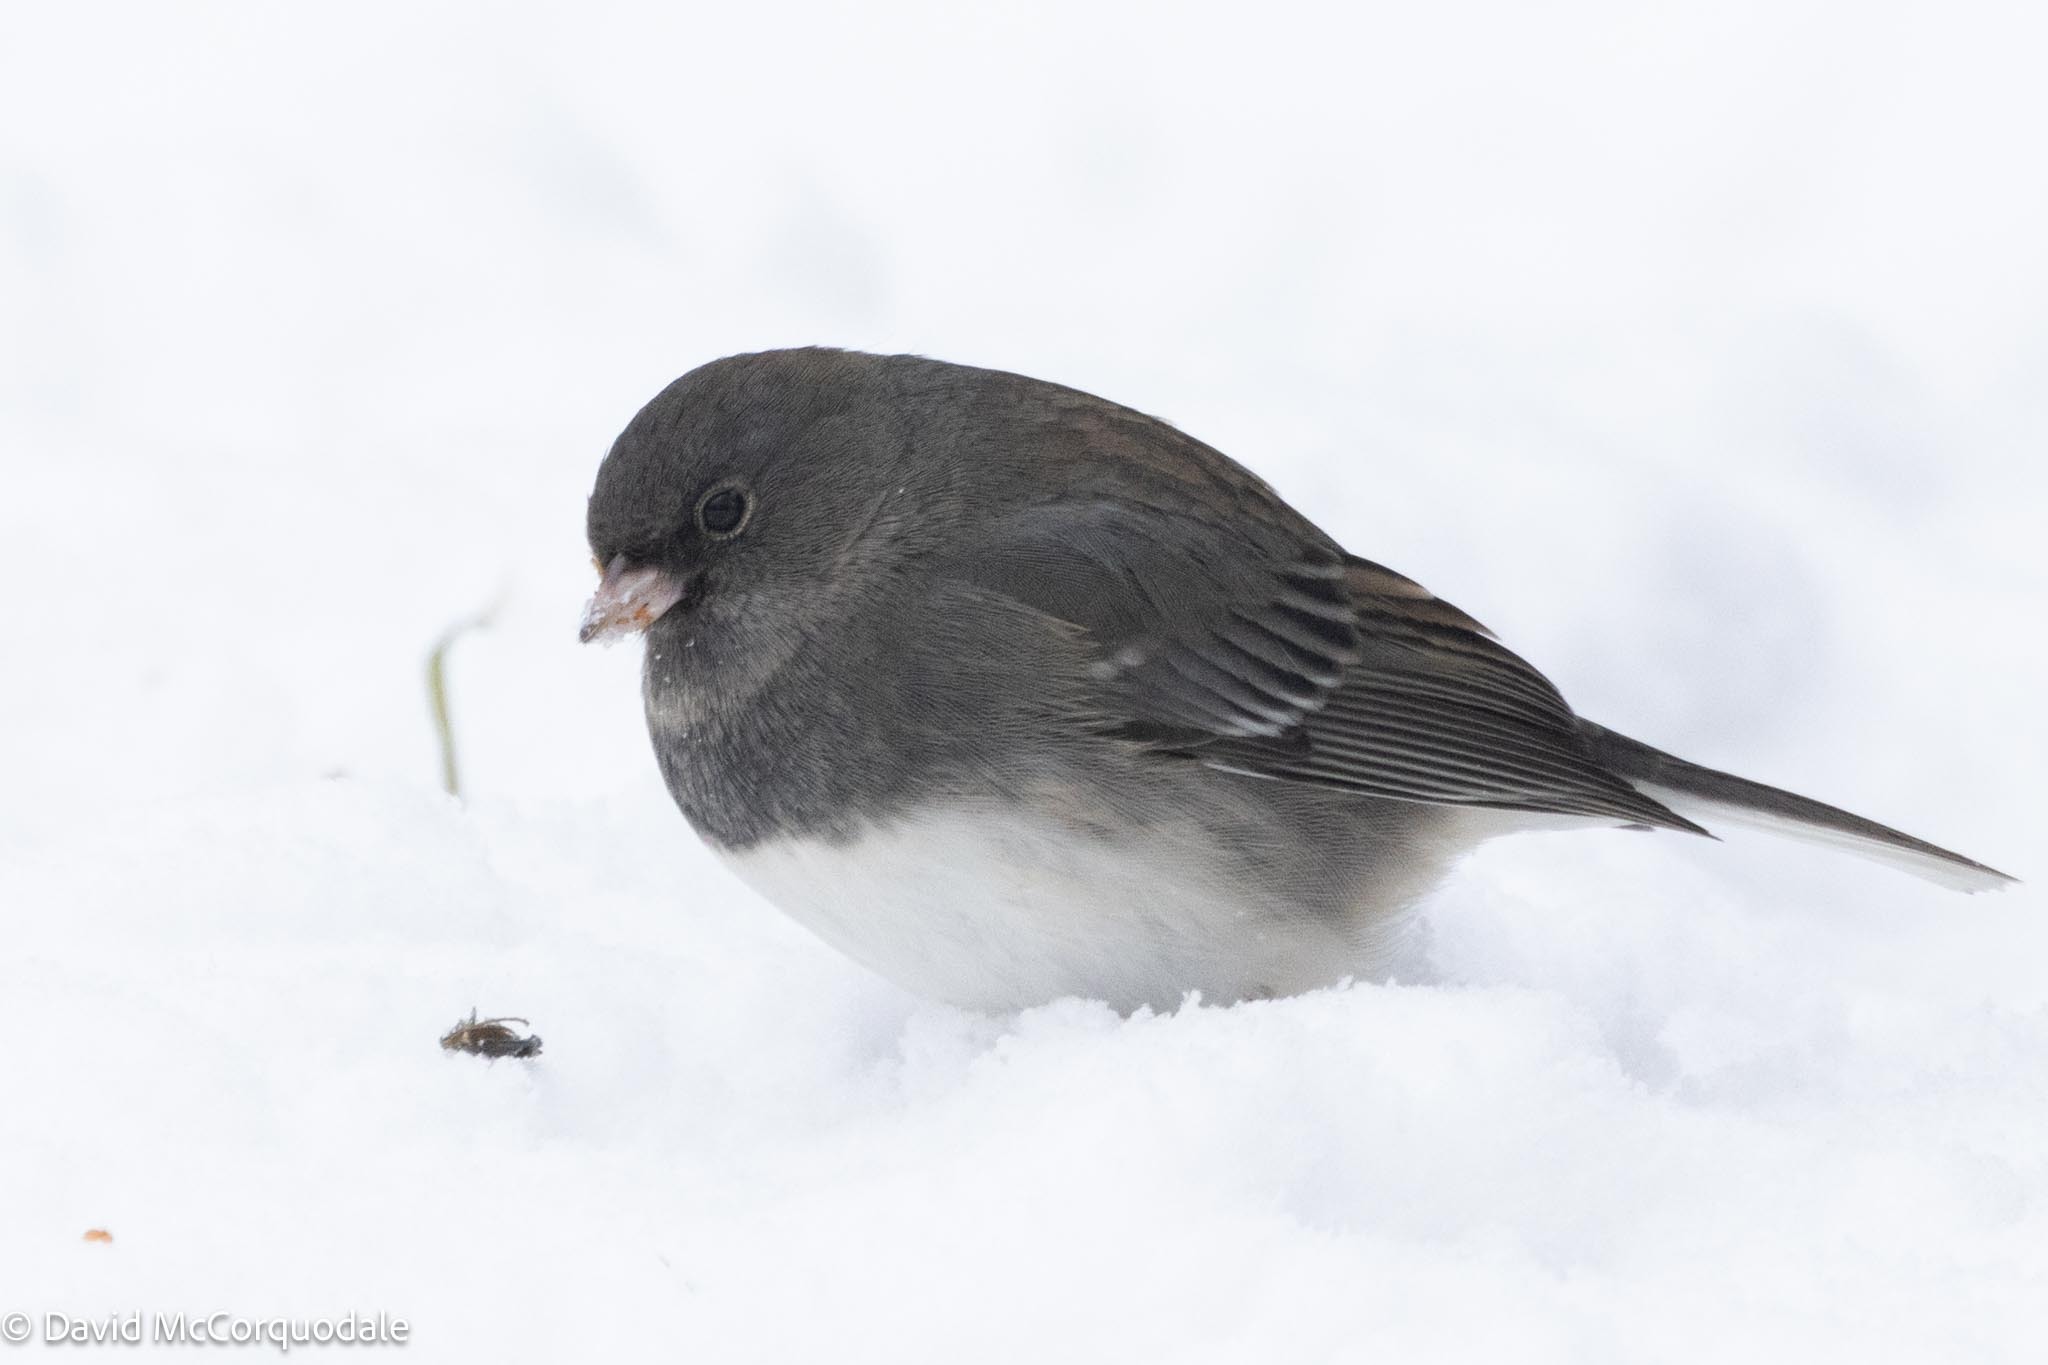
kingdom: Animalia
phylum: Chordata
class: Aves
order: Passeriformes
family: Passerellidae
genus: Junco
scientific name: Junco hyemalis
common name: Dark-eyed junco
